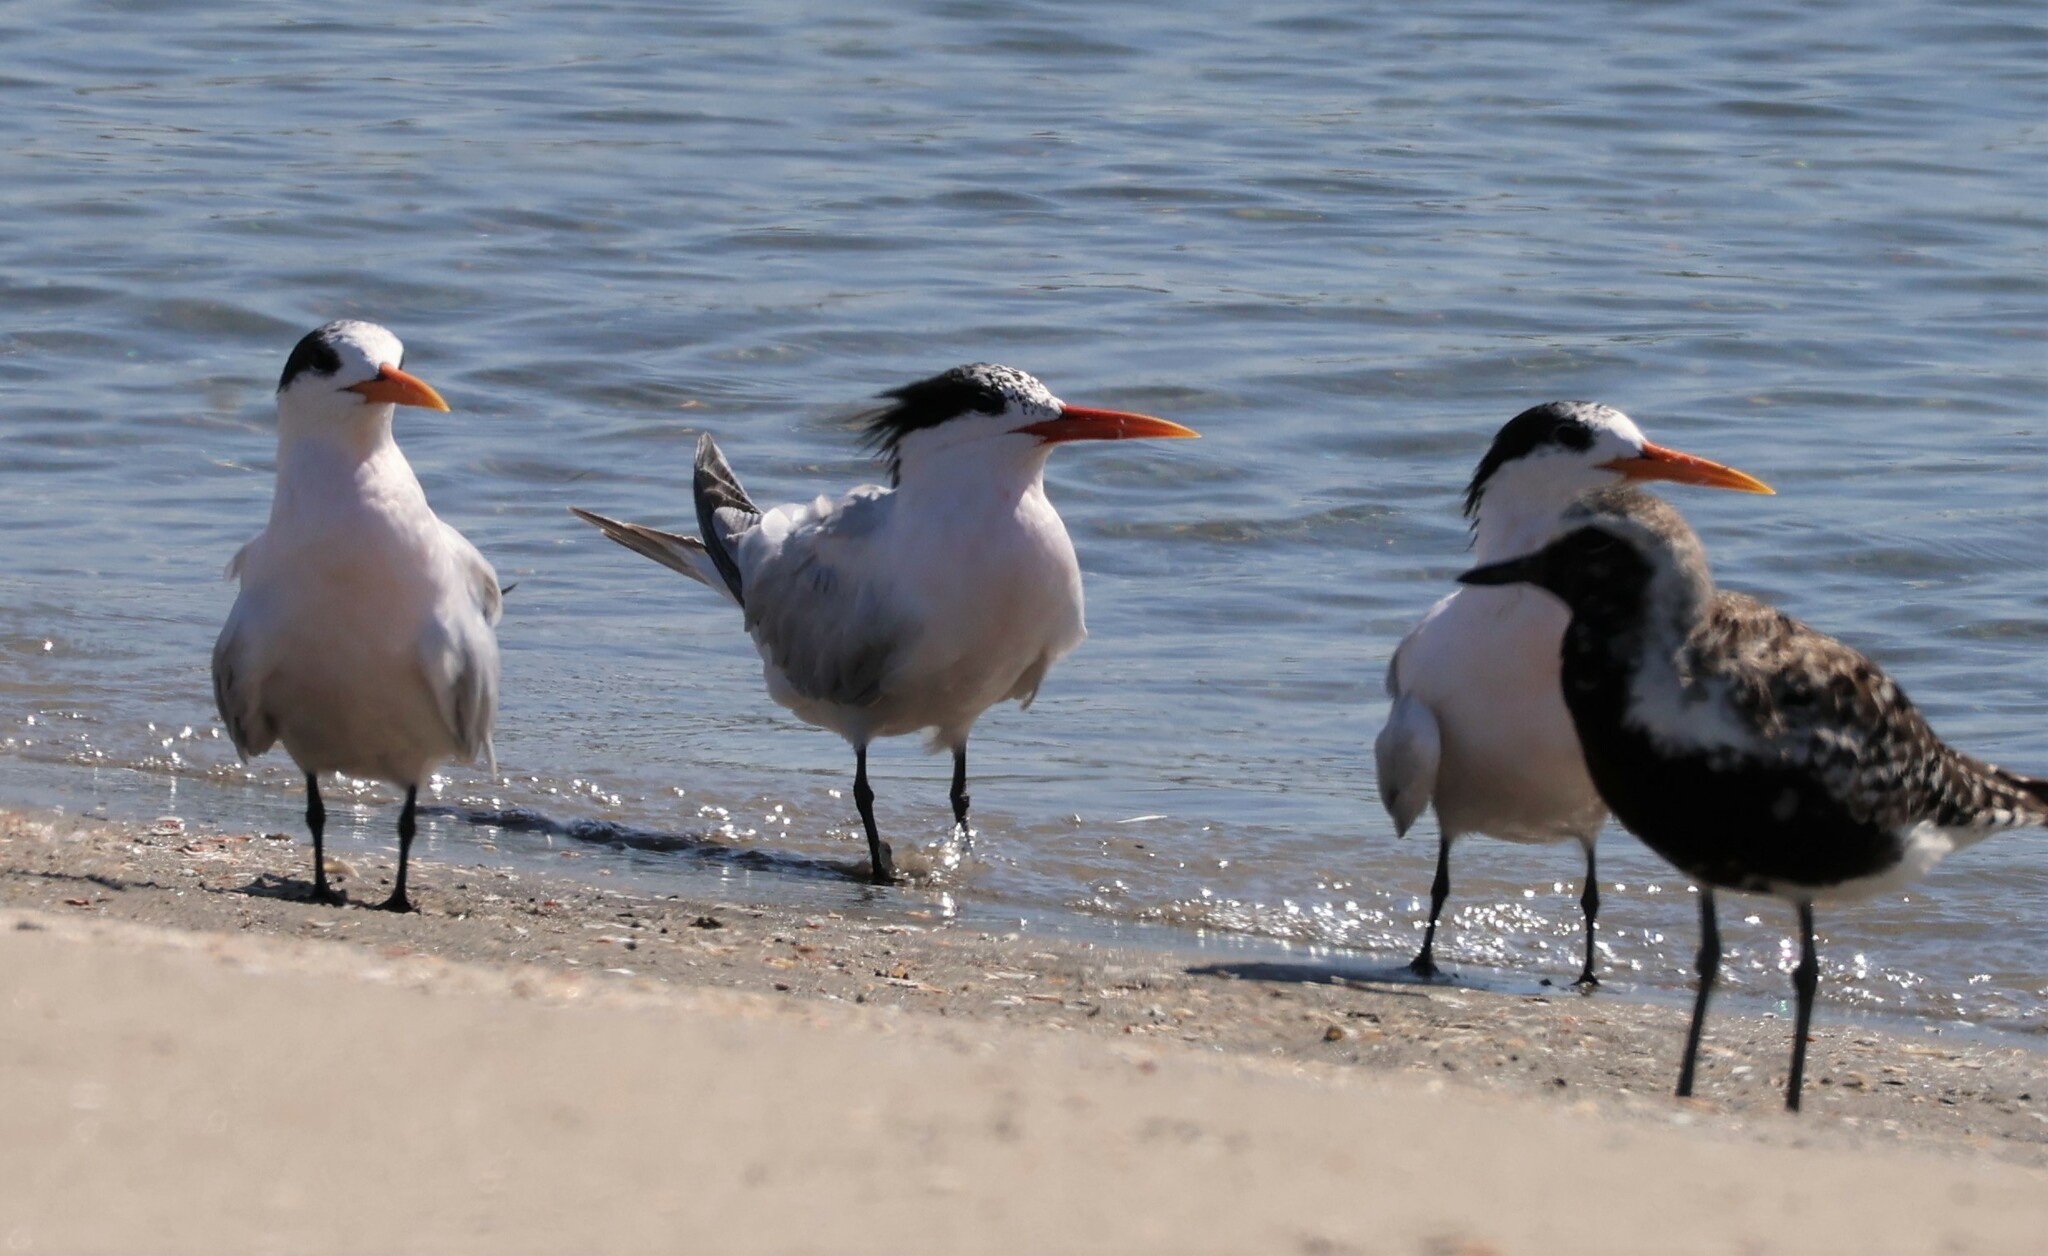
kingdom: Animalia
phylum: Chordata
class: Aves
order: Charadriiformes
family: Laridae
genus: Thalasseus
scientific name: Thalasseus elegans
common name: Elegant tern
